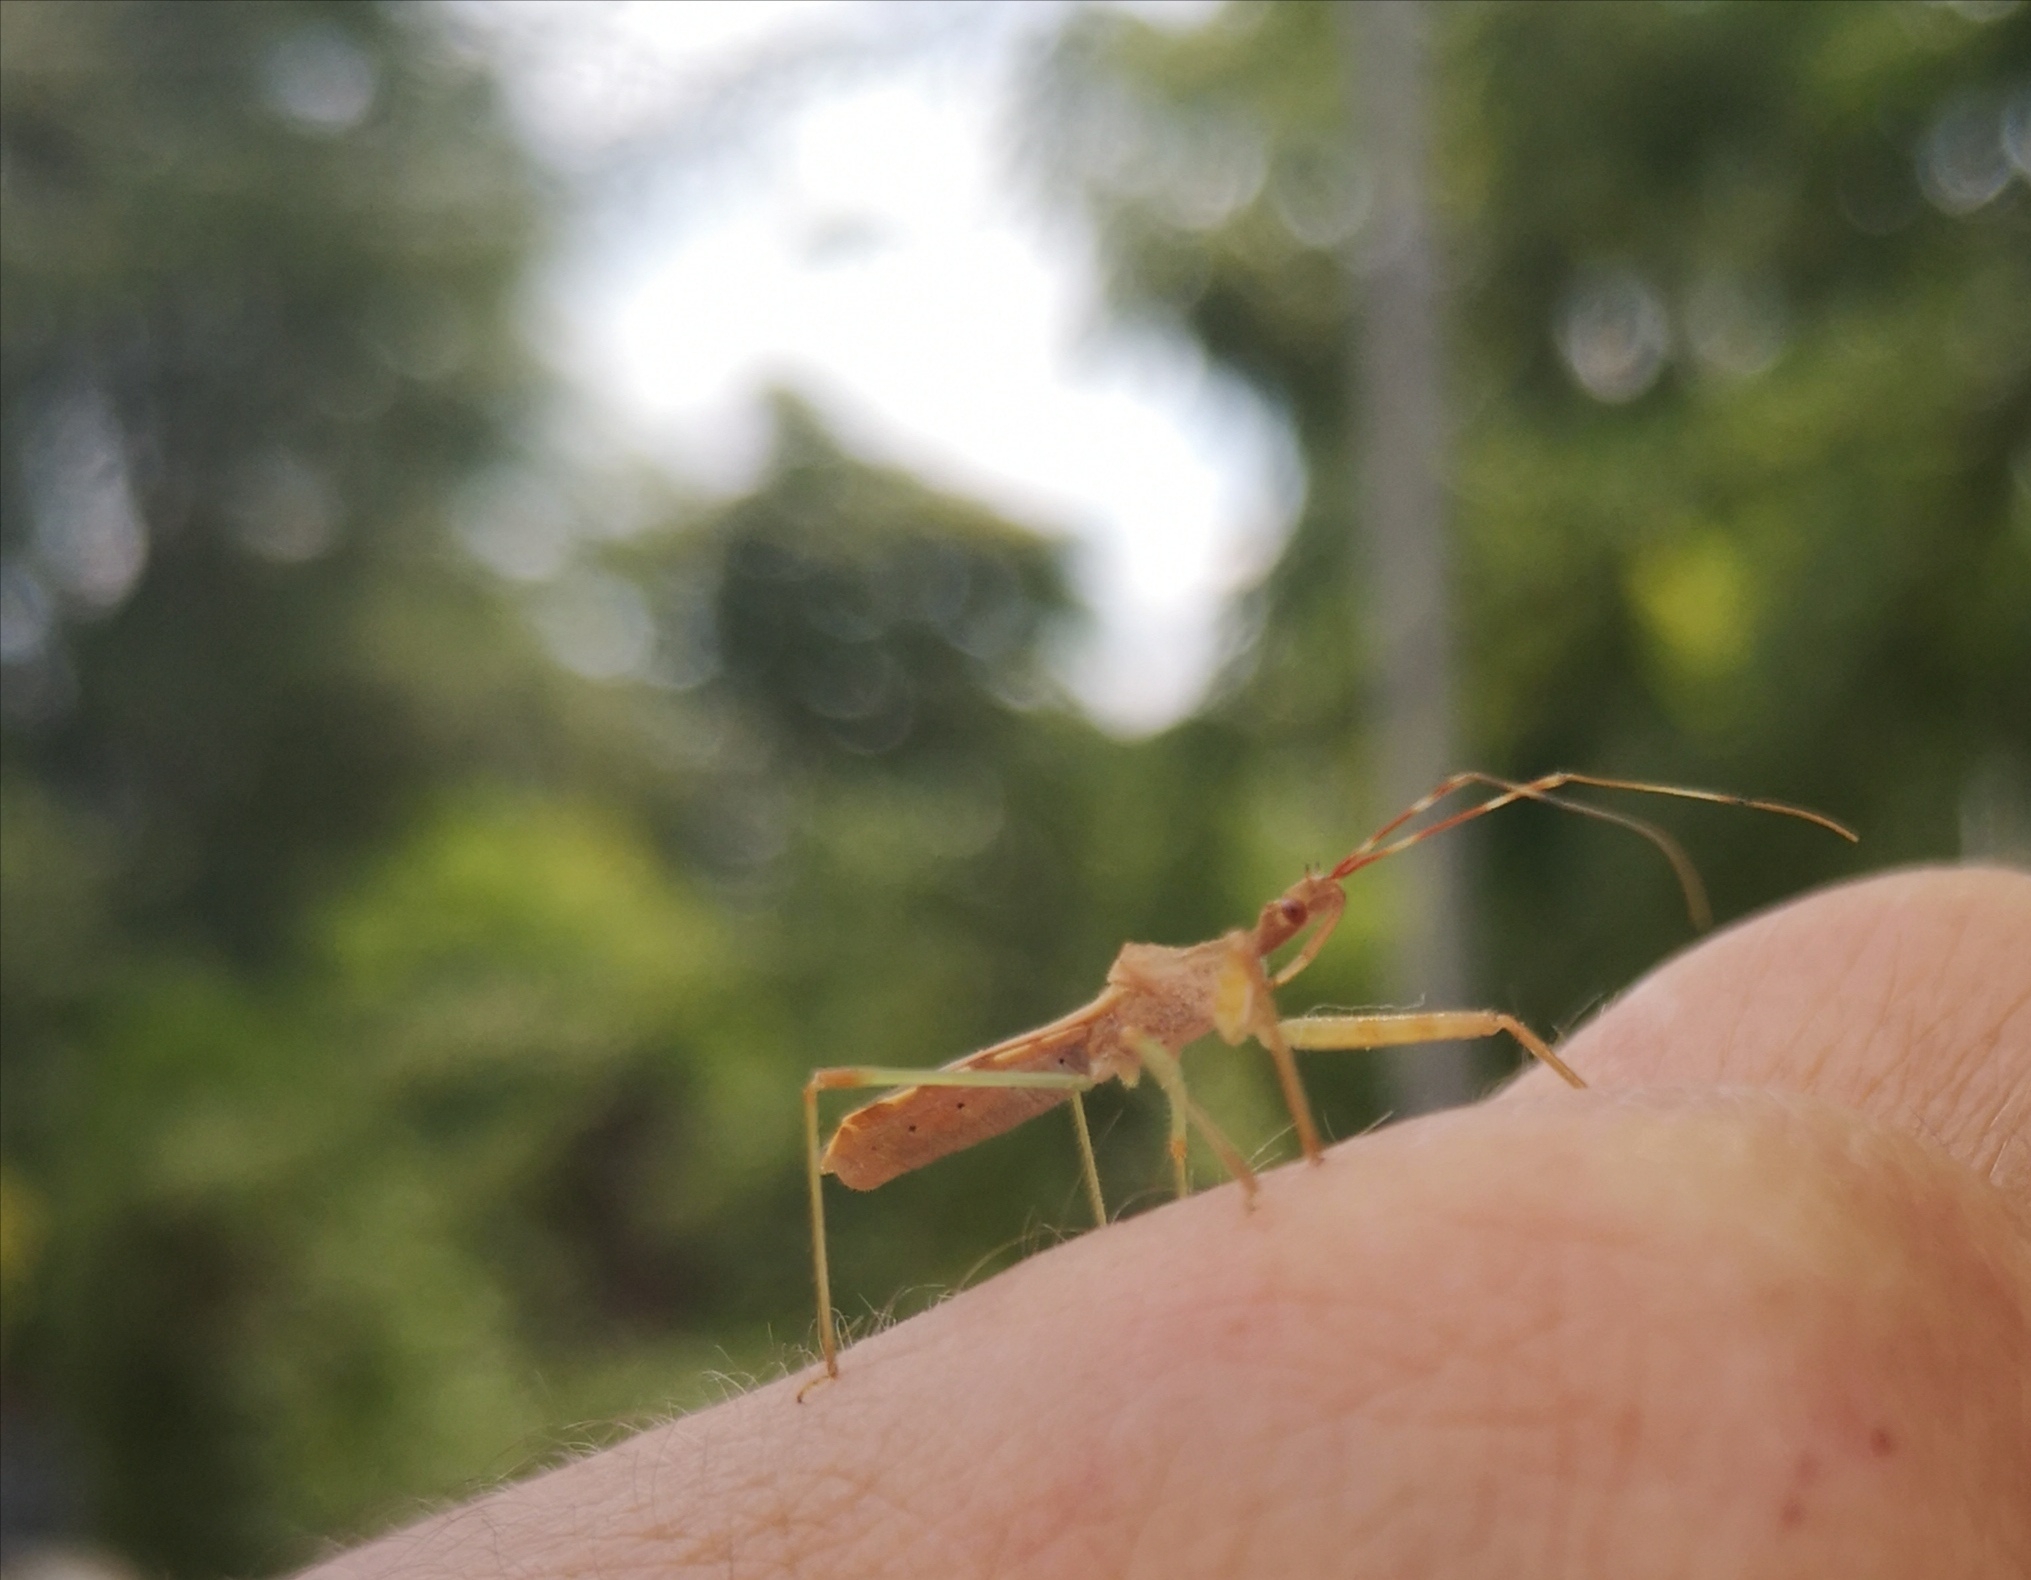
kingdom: Animalia
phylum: Arthropoda
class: Insecta
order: Hemiptera
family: Reduviidae
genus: Nagusta
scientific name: Nagusta goedelii
